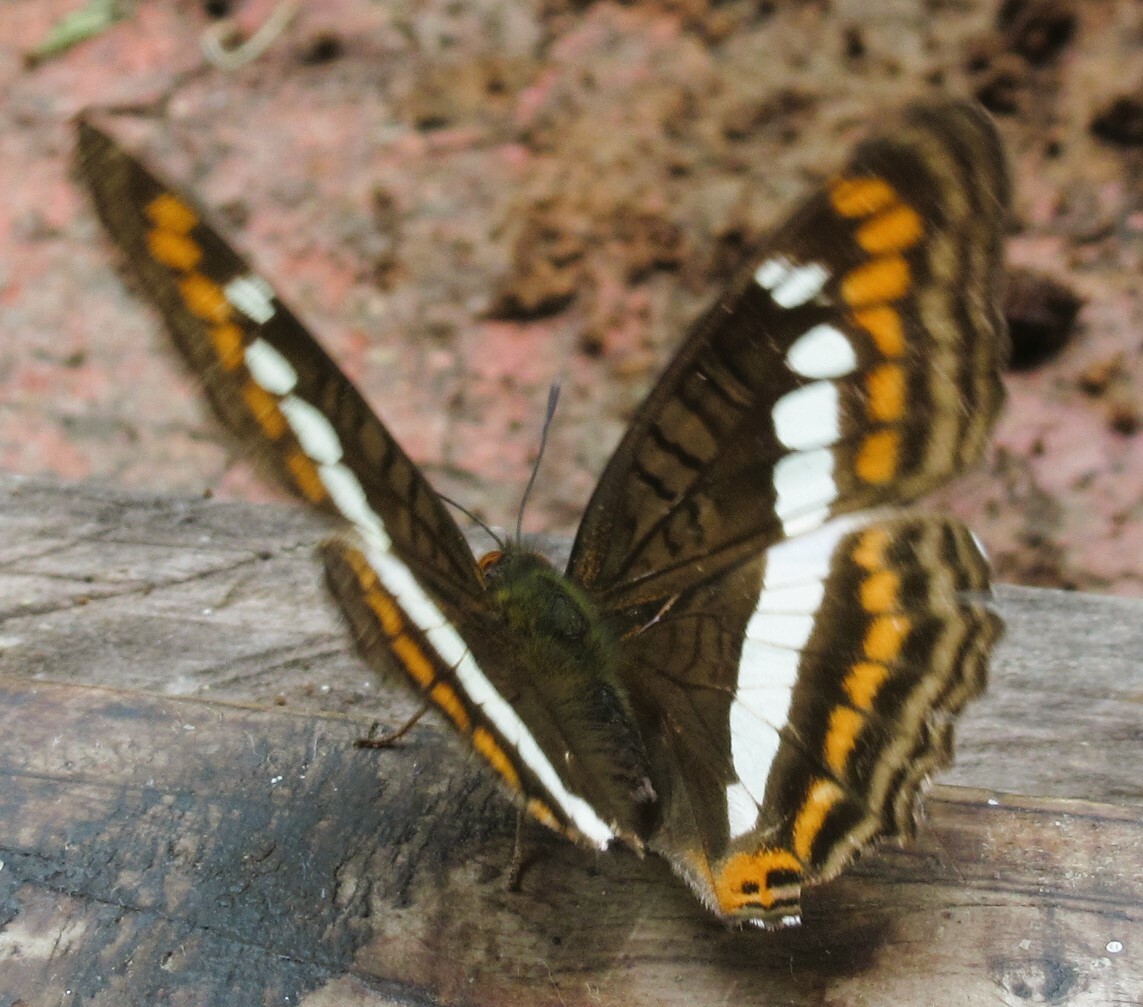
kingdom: Animalia
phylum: Arthropoda
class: Insecta
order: Lepidoptera
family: Nymphalidae
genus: Limenitis
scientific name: Limenitis alala
